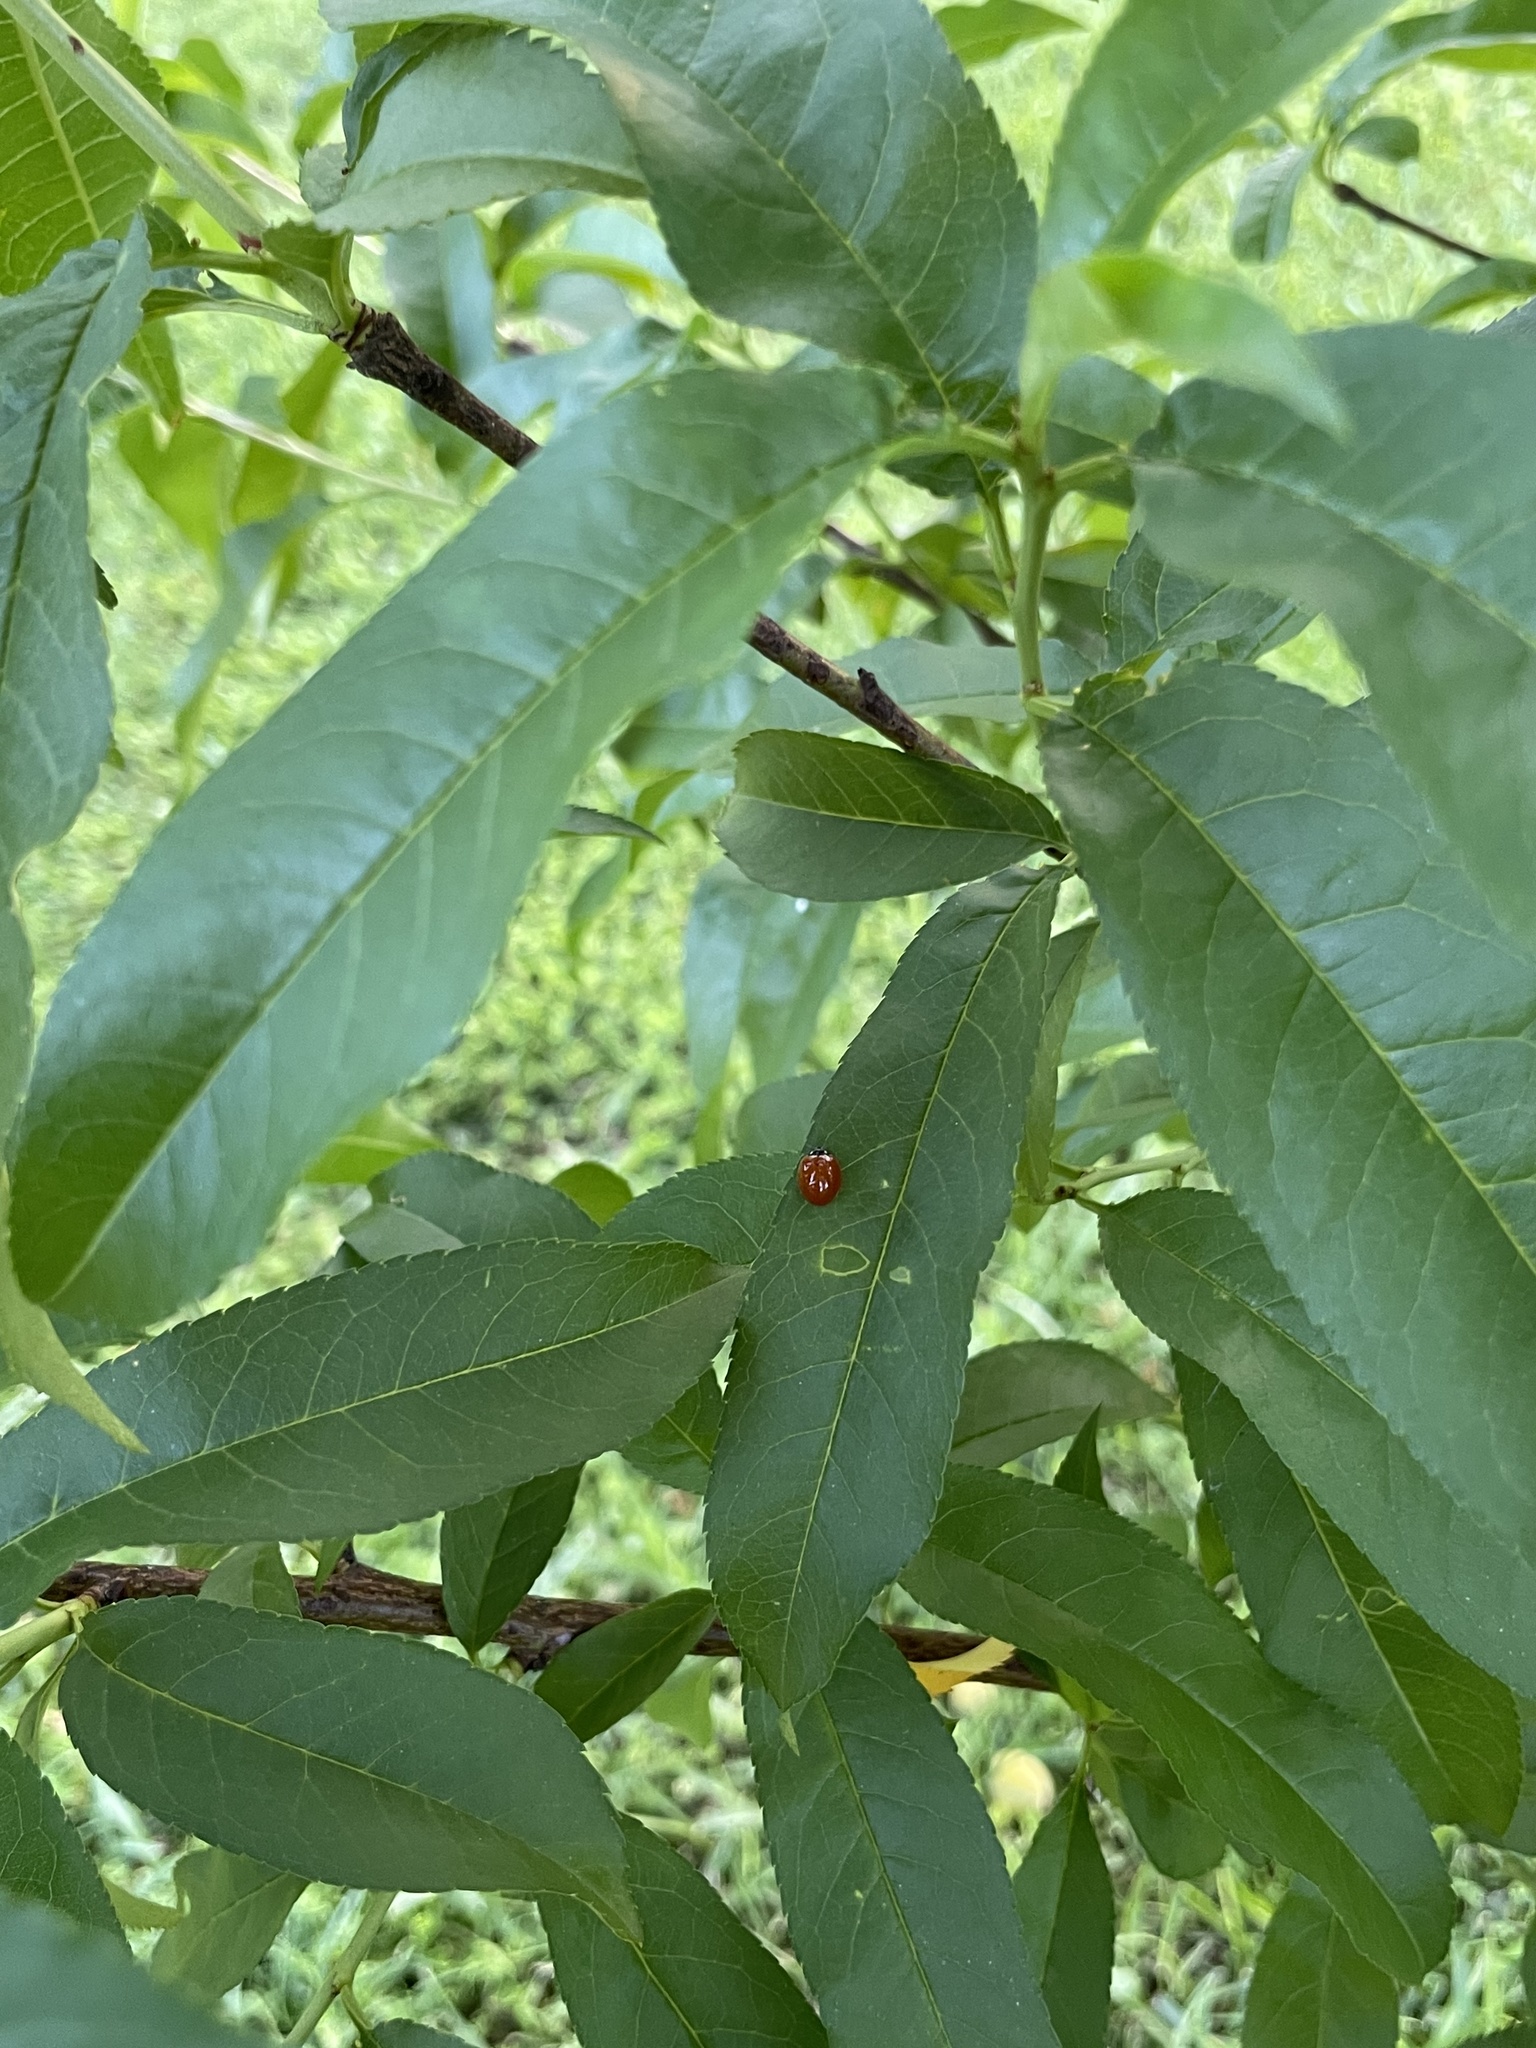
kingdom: Animalia
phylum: Arthropoda
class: Insecta
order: Coleoptera
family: Coccinellidae
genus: Cycloneda
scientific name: Cycloneda munda
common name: Polished lady beetle
